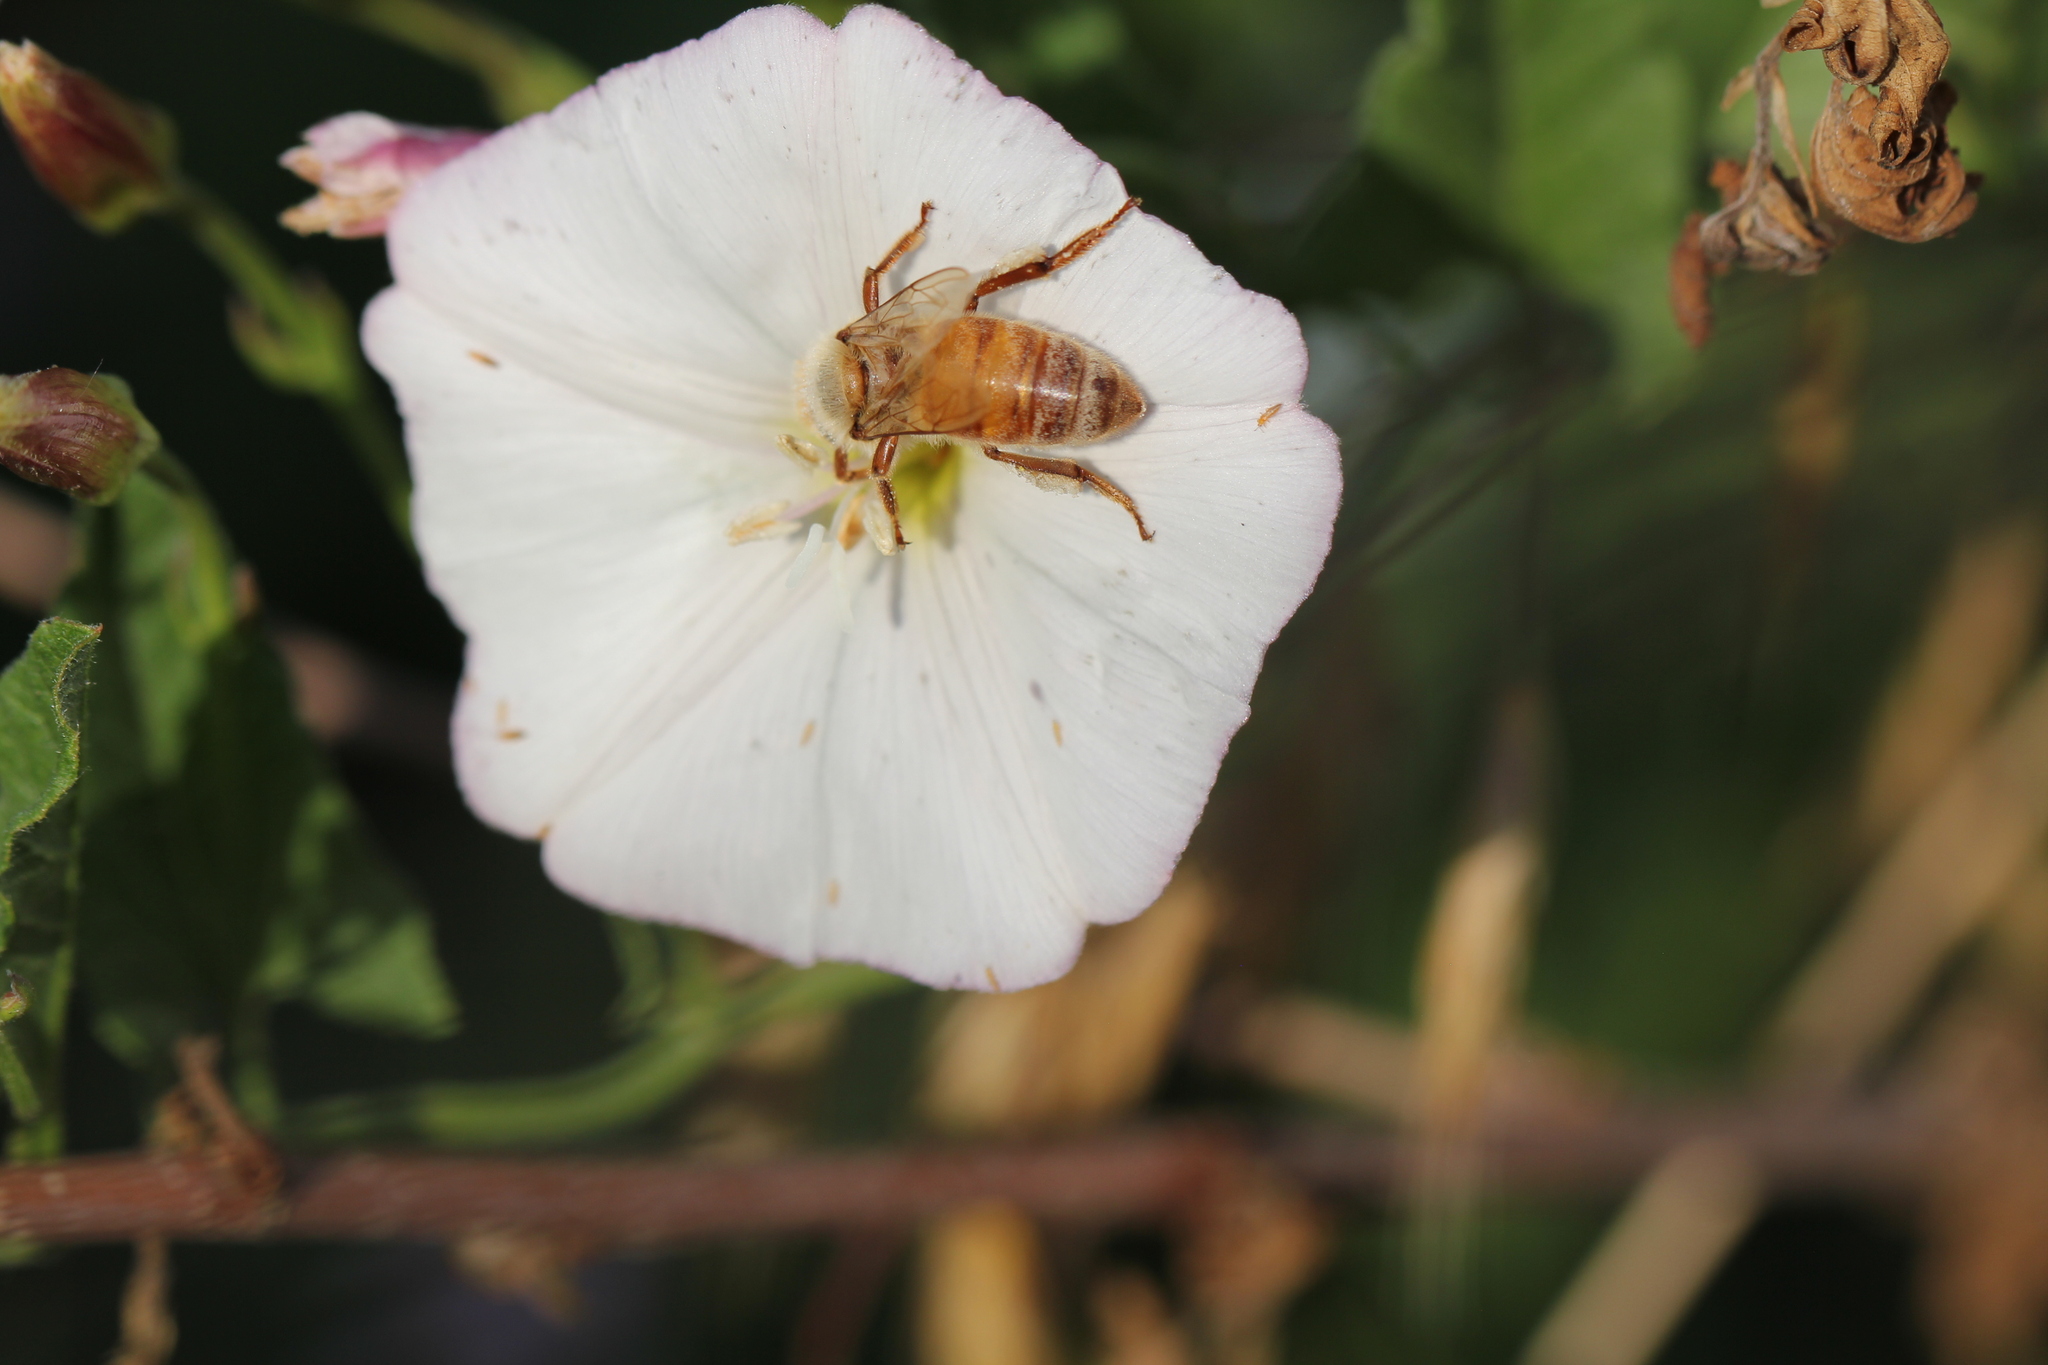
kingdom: Animalia
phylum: Arthropoda
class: Insecta
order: Hymenoptera
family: Apidae
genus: Apis
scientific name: Apis mellifera
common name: Honey bee
